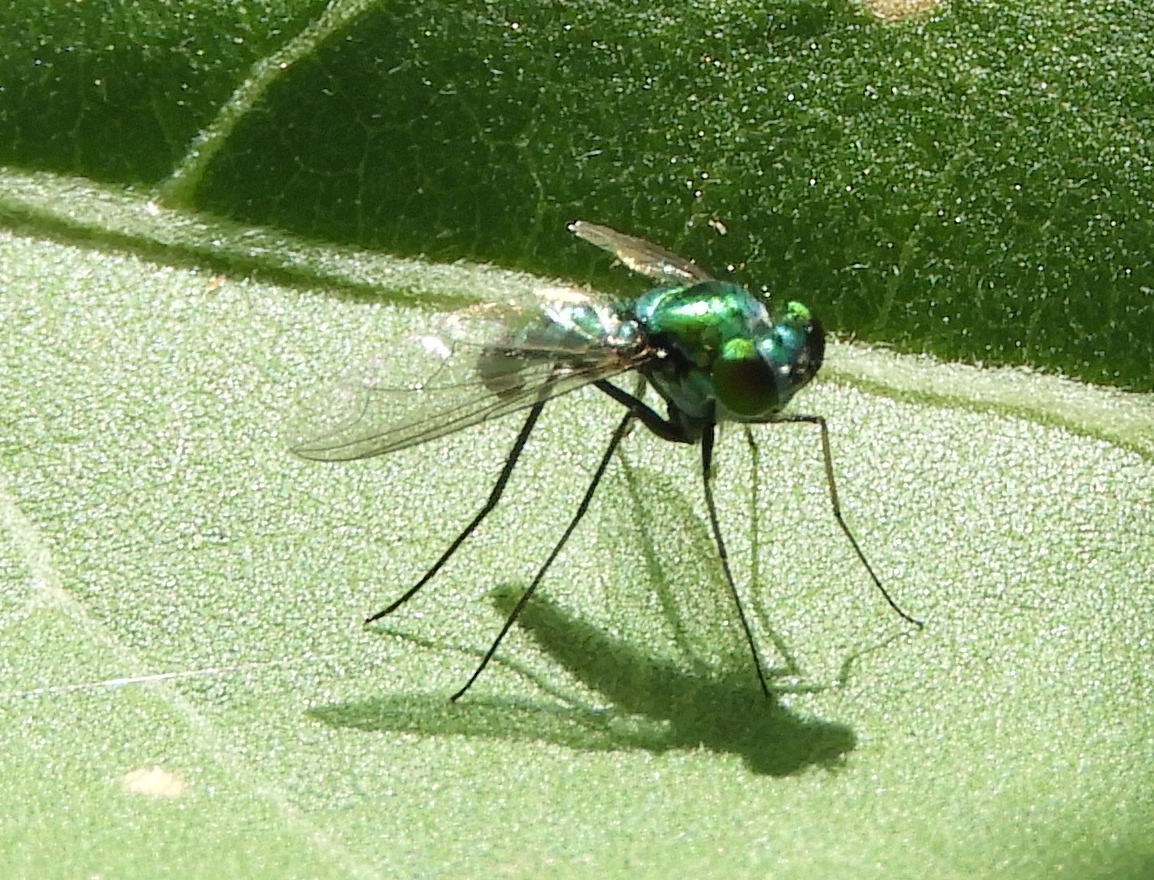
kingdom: Animalia
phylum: Arthropoda
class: Insecta
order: Diptera
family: Dolichopodidae
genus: Condylostylus
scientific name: Condylostylus
